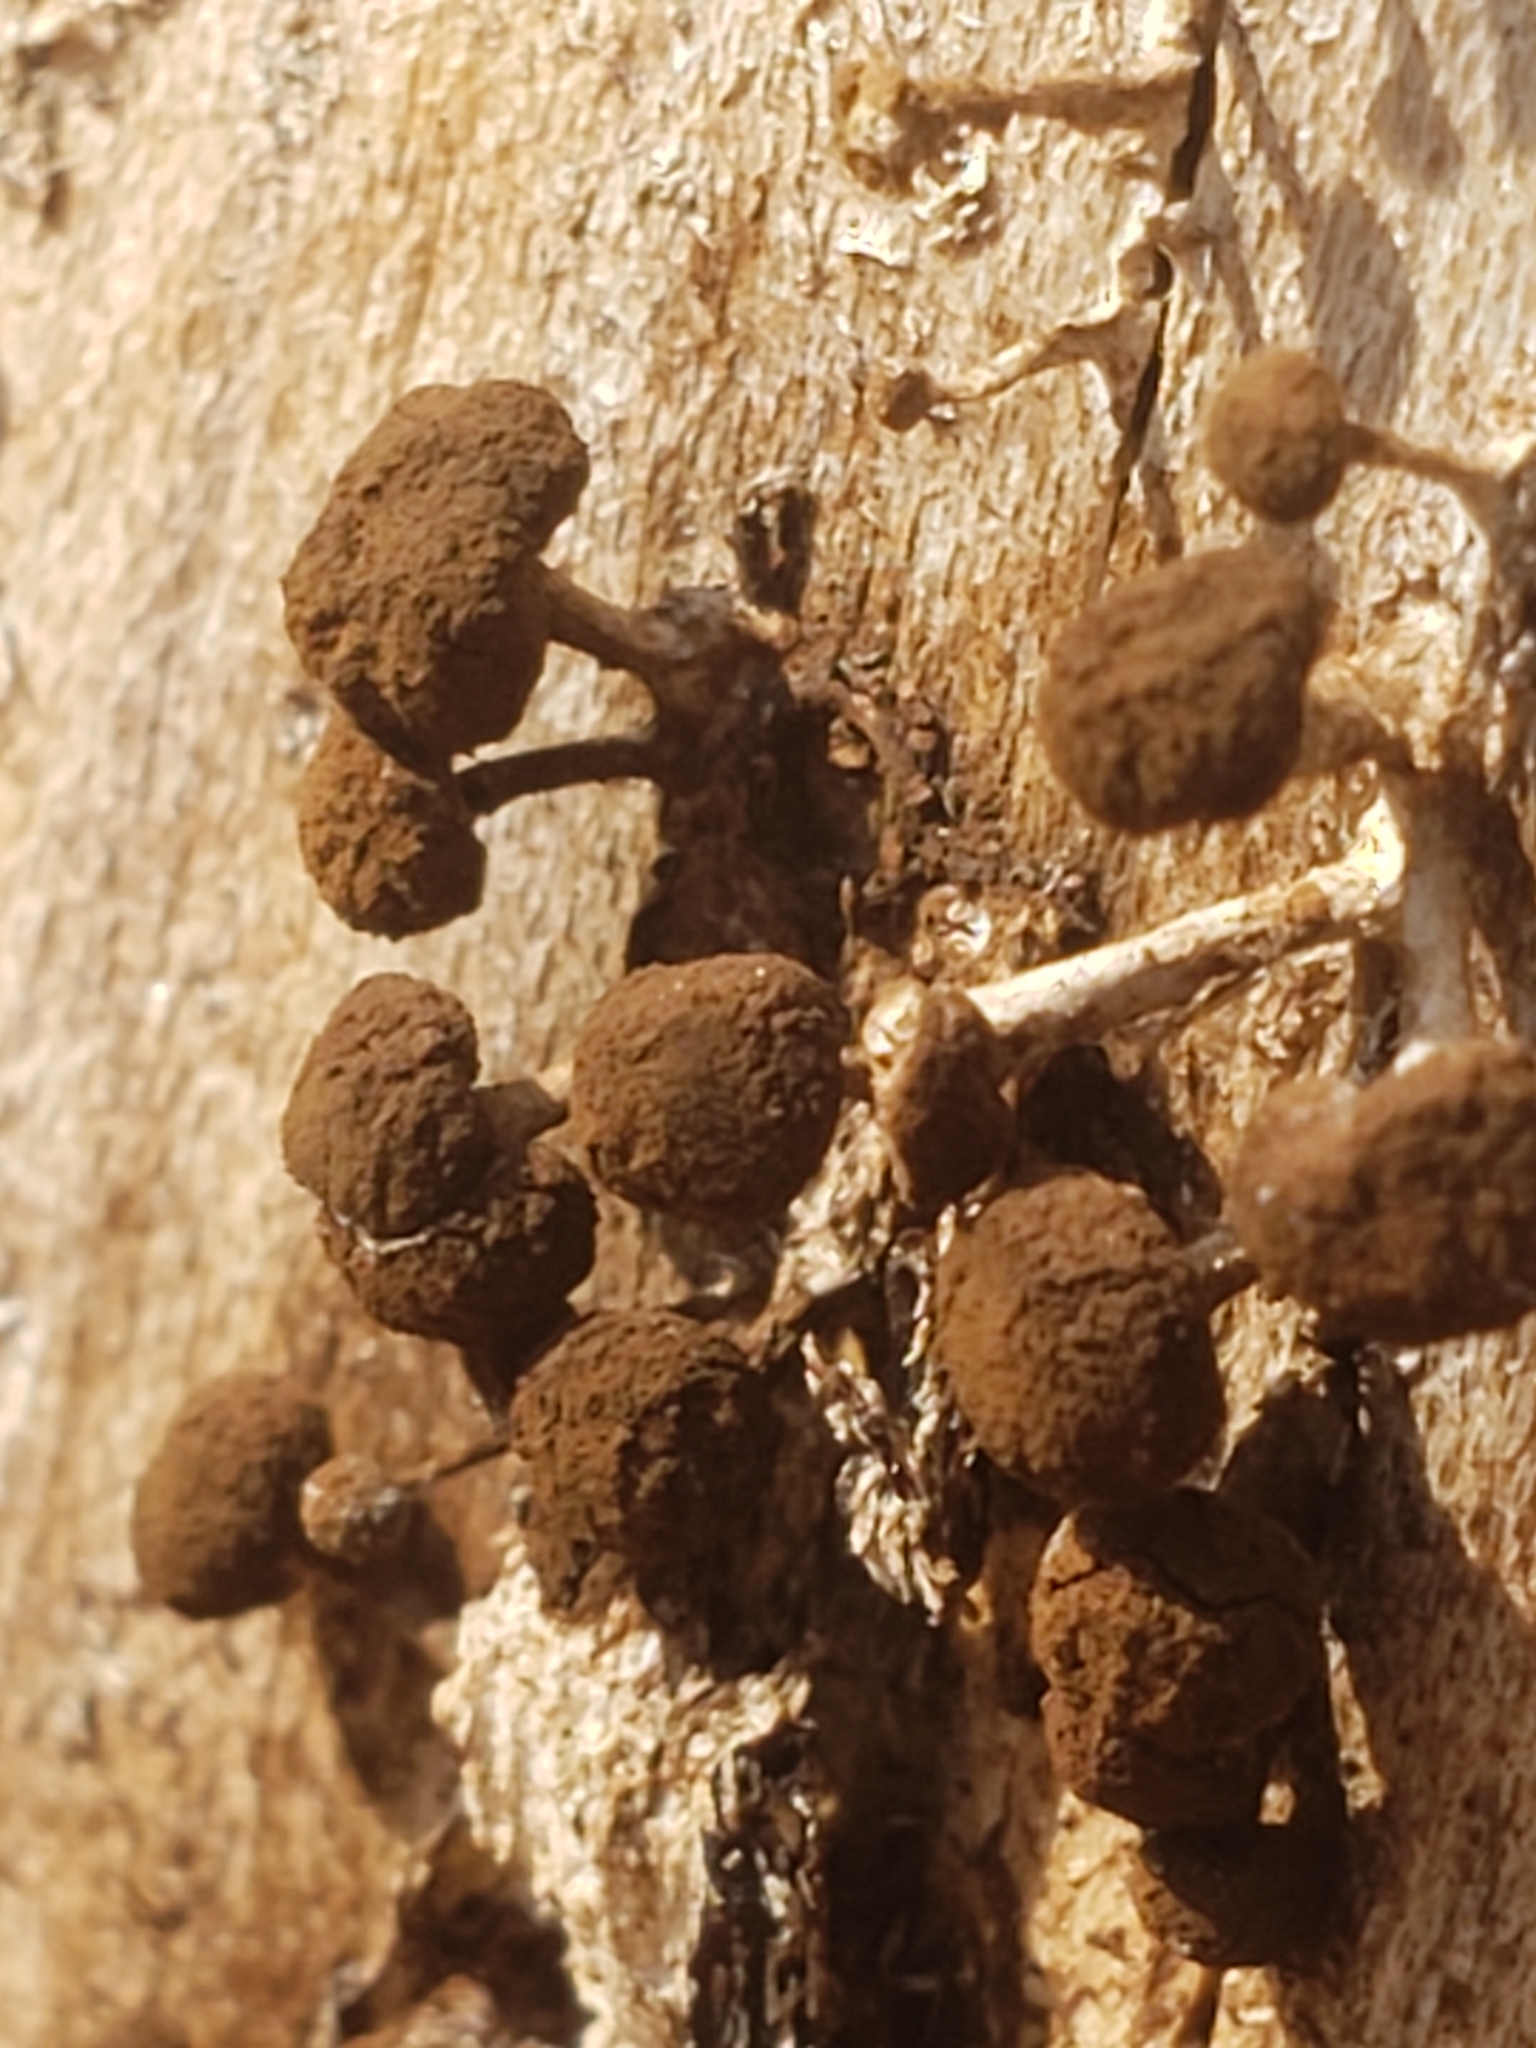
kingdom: Fungi
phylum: Basidiomycota
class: Atractiellomycetes
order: Atractiellales
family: Phleogenaceae
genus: Phleogena
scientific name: Phleogena faginea
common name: Fenugreek stalkball
